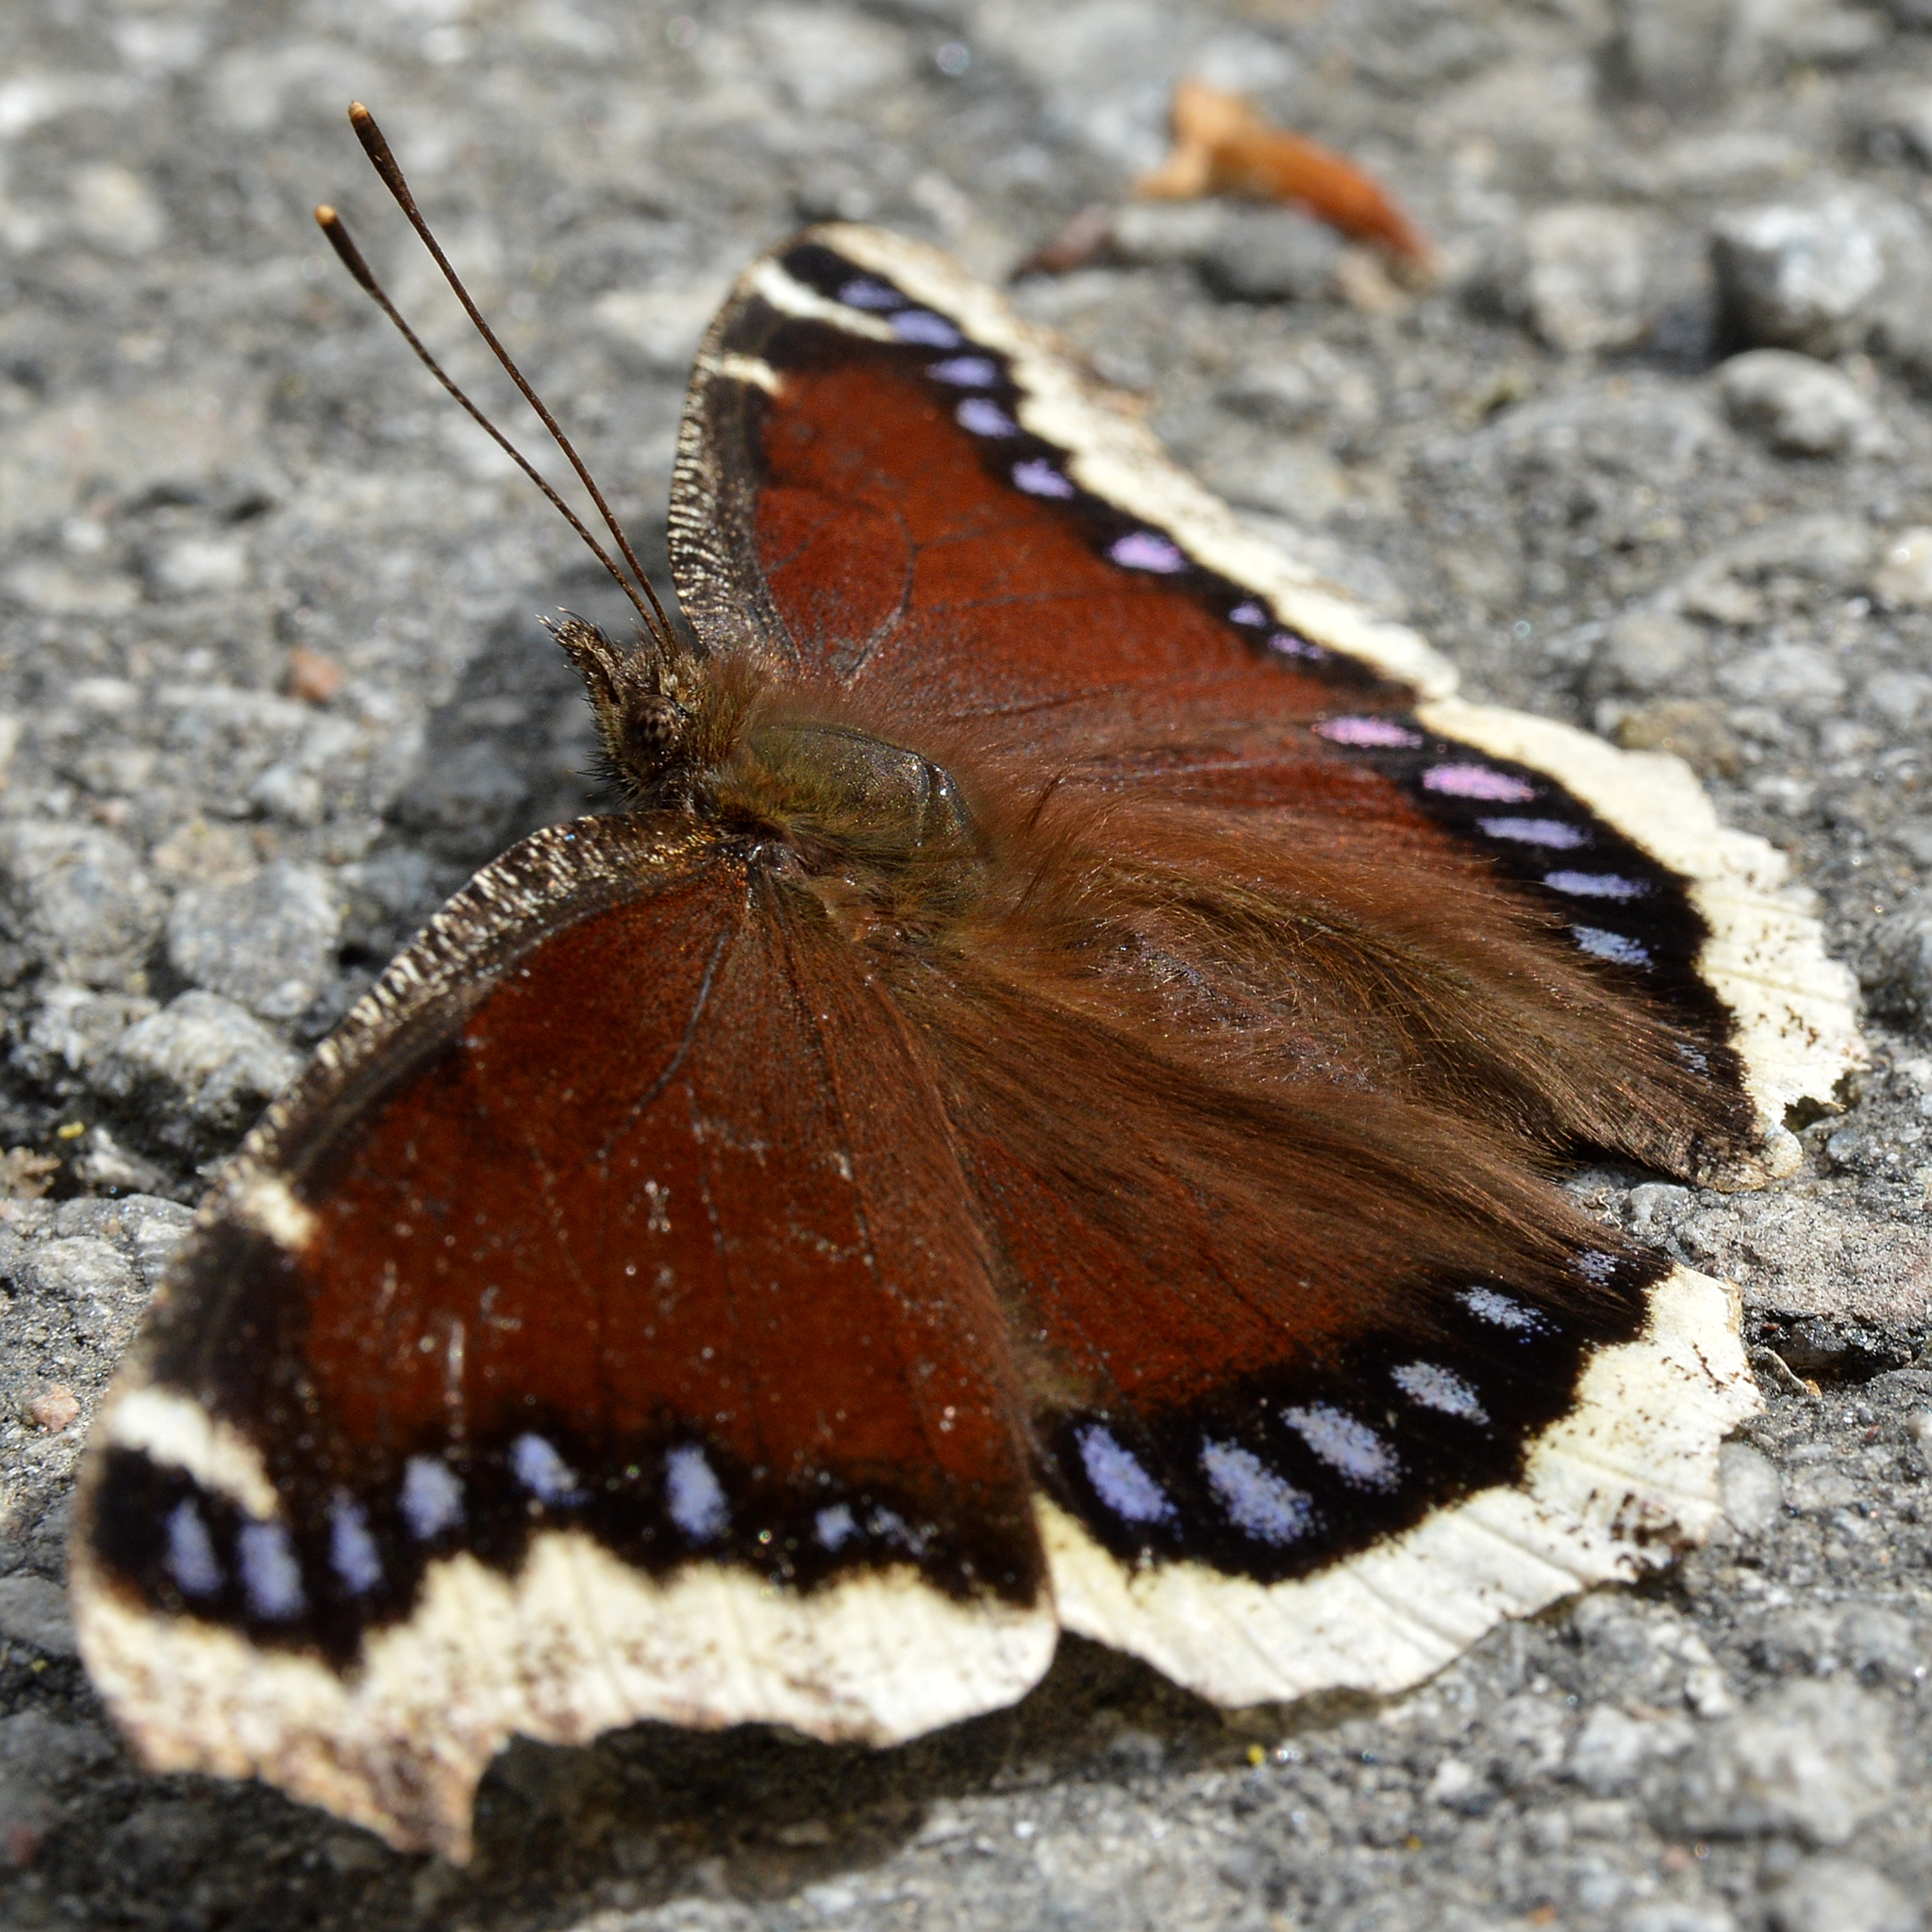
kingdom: Animalia
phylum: Arthropoda
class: Insecta
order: Lepidoptera
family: Nymphalidae
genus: Nymphalis
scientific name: Nymphalis antiopa
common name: Camberwell beauty
